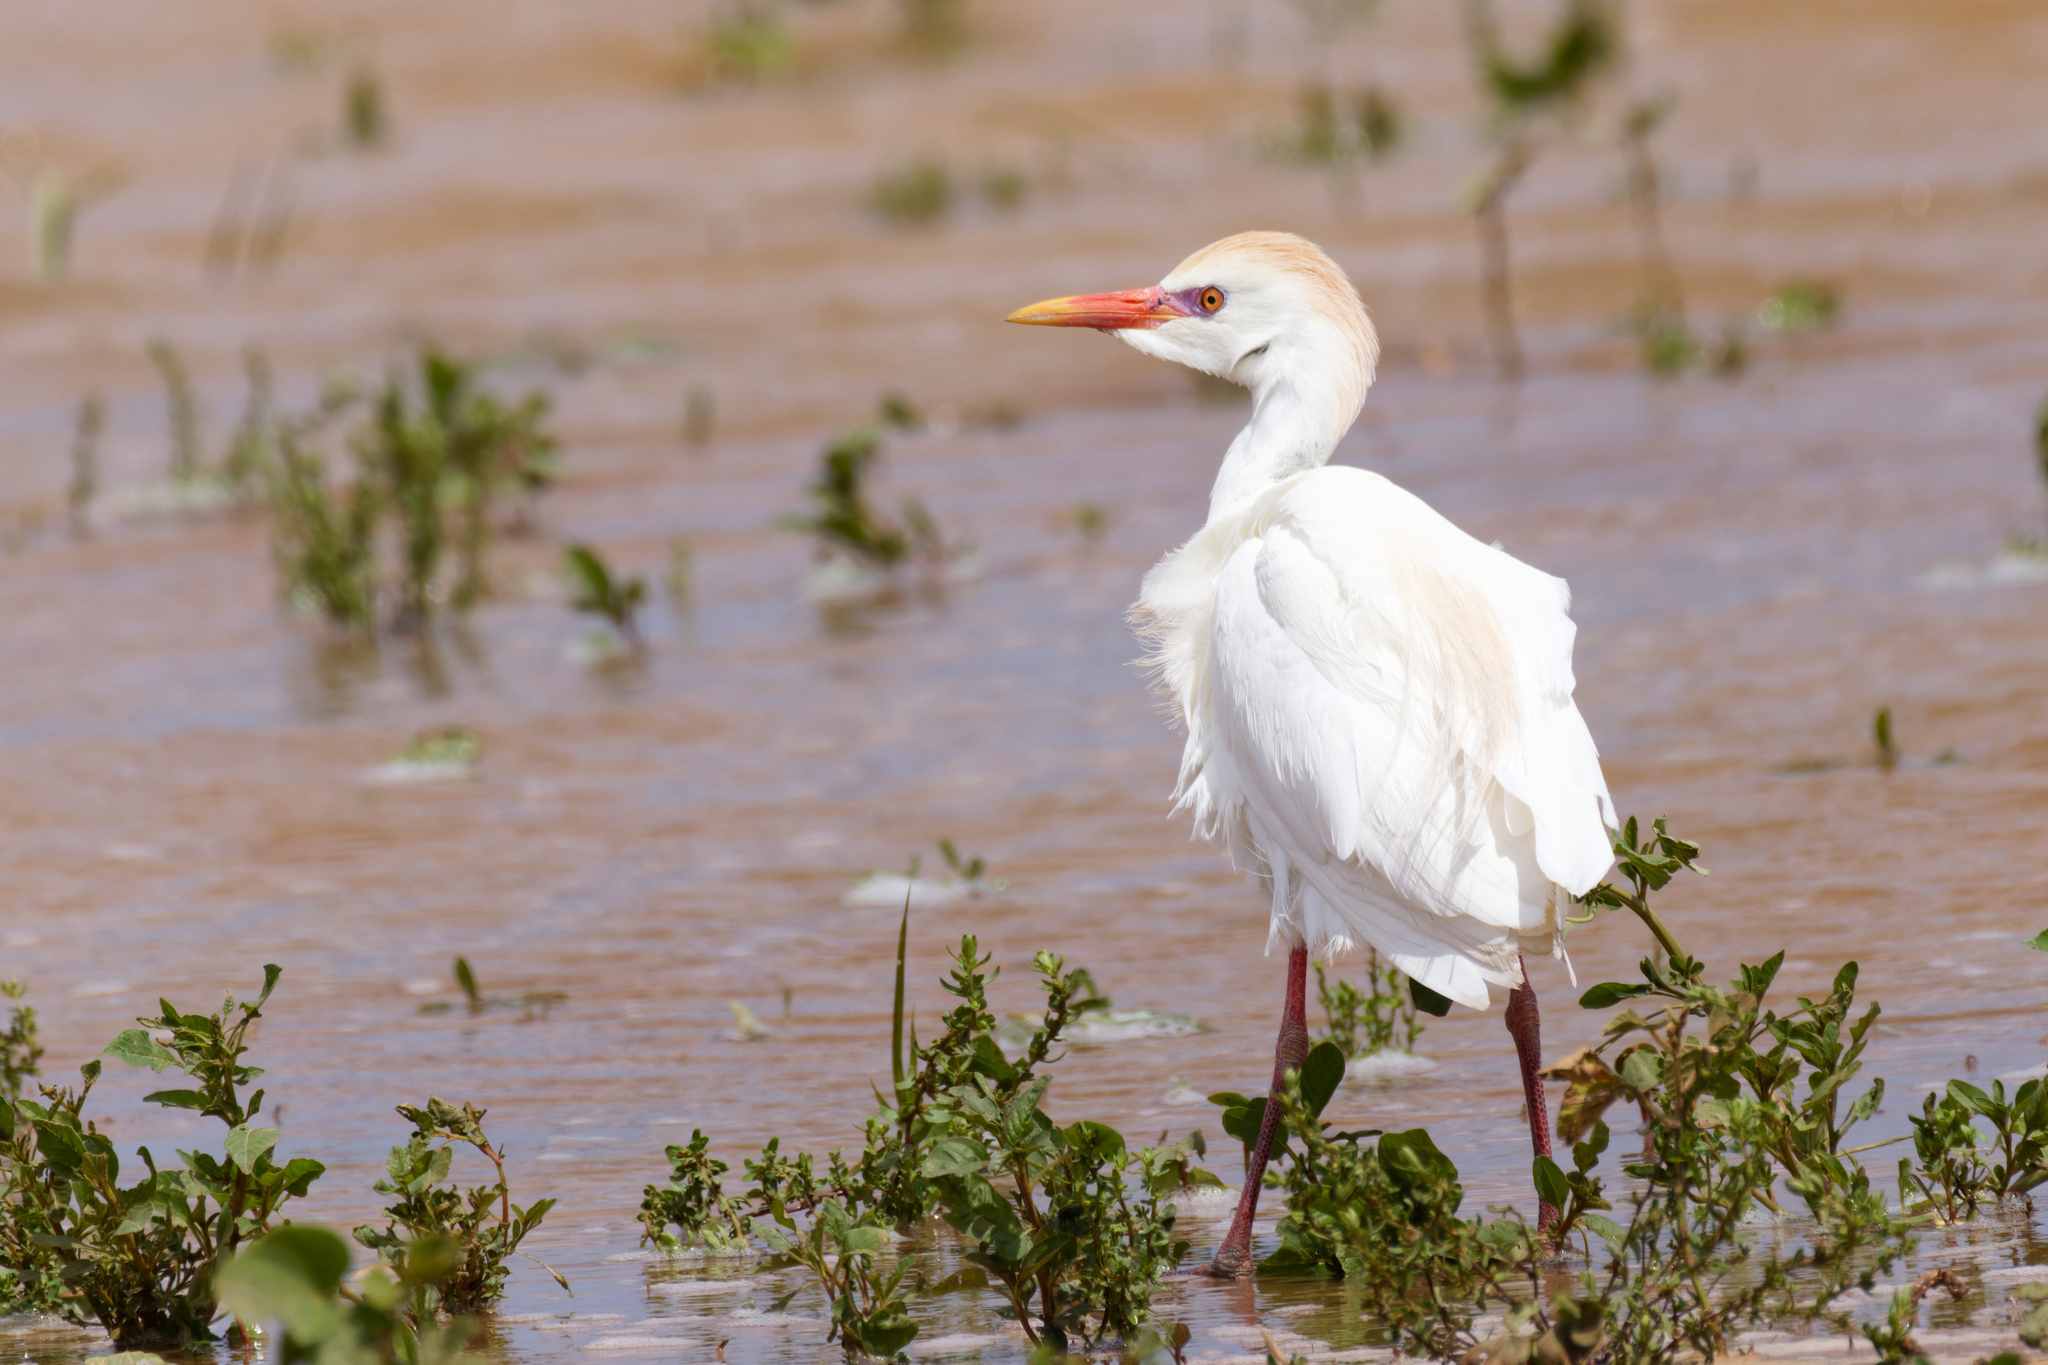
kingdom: Animalia
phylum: Chordata
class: Aves
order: Pelecaniformes
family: Ardeidae
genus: Bubulcus
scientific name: Bubulcus ibis
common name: Cattle egret
